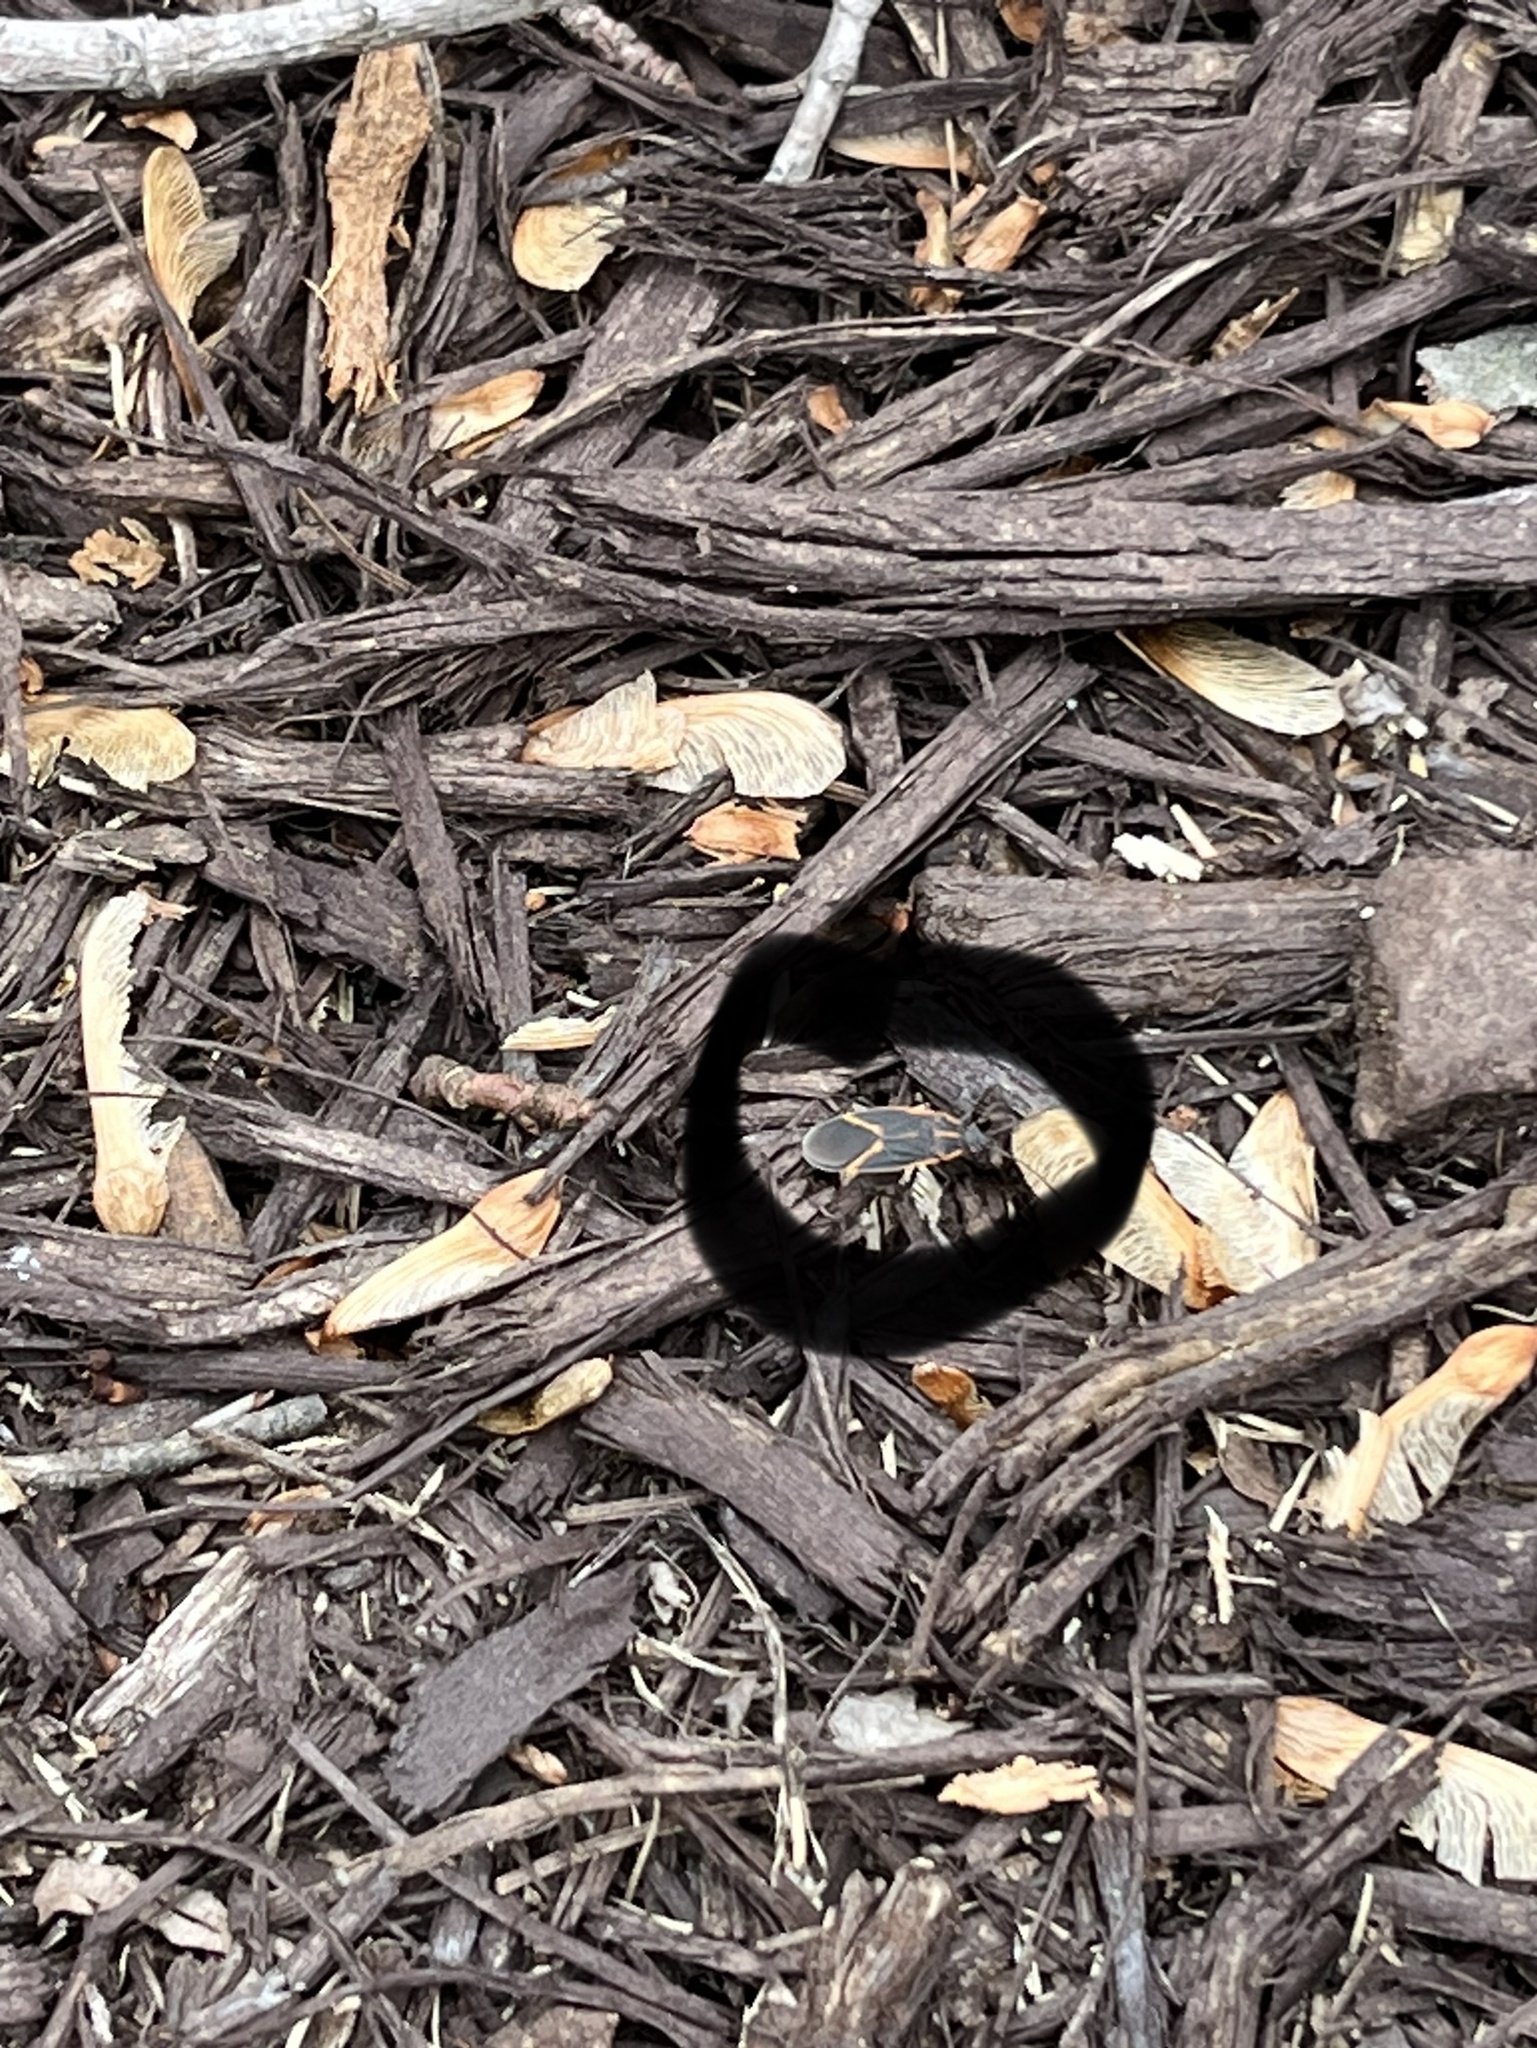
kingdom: Animalia
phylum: Arthropoda
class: Insecta
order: Hemiptera
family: Rhopalidae
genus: Boisea
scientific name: Boisea trivittata
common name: Boxelder bug
